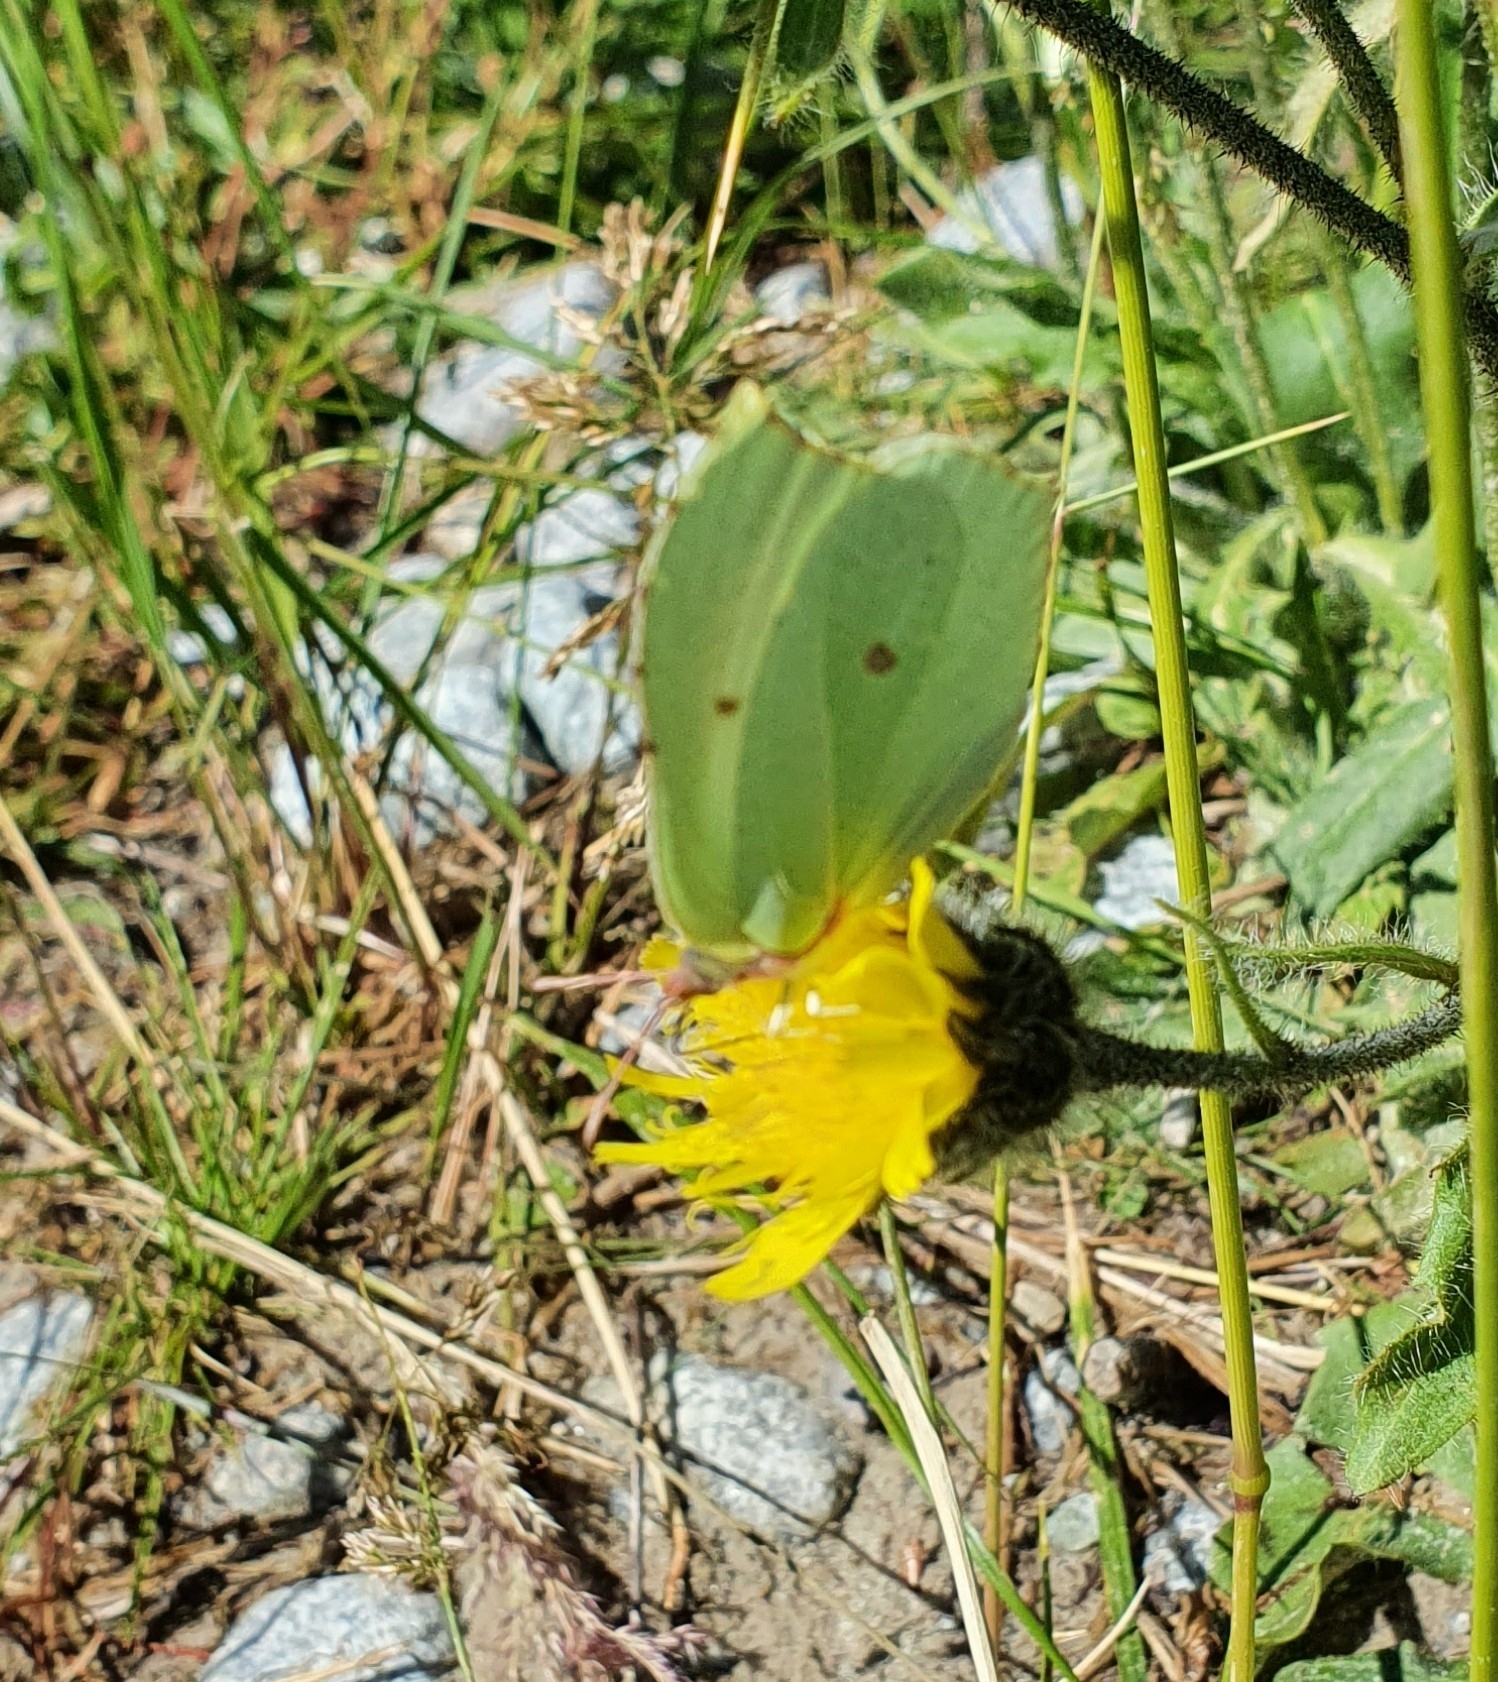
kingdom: Animalia
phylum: Arthropoda
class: Insecta
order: Lepidoptera
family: Pieridae
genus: Gonepteryx
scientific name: Gonepteryx rhamni
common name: Brimstone
